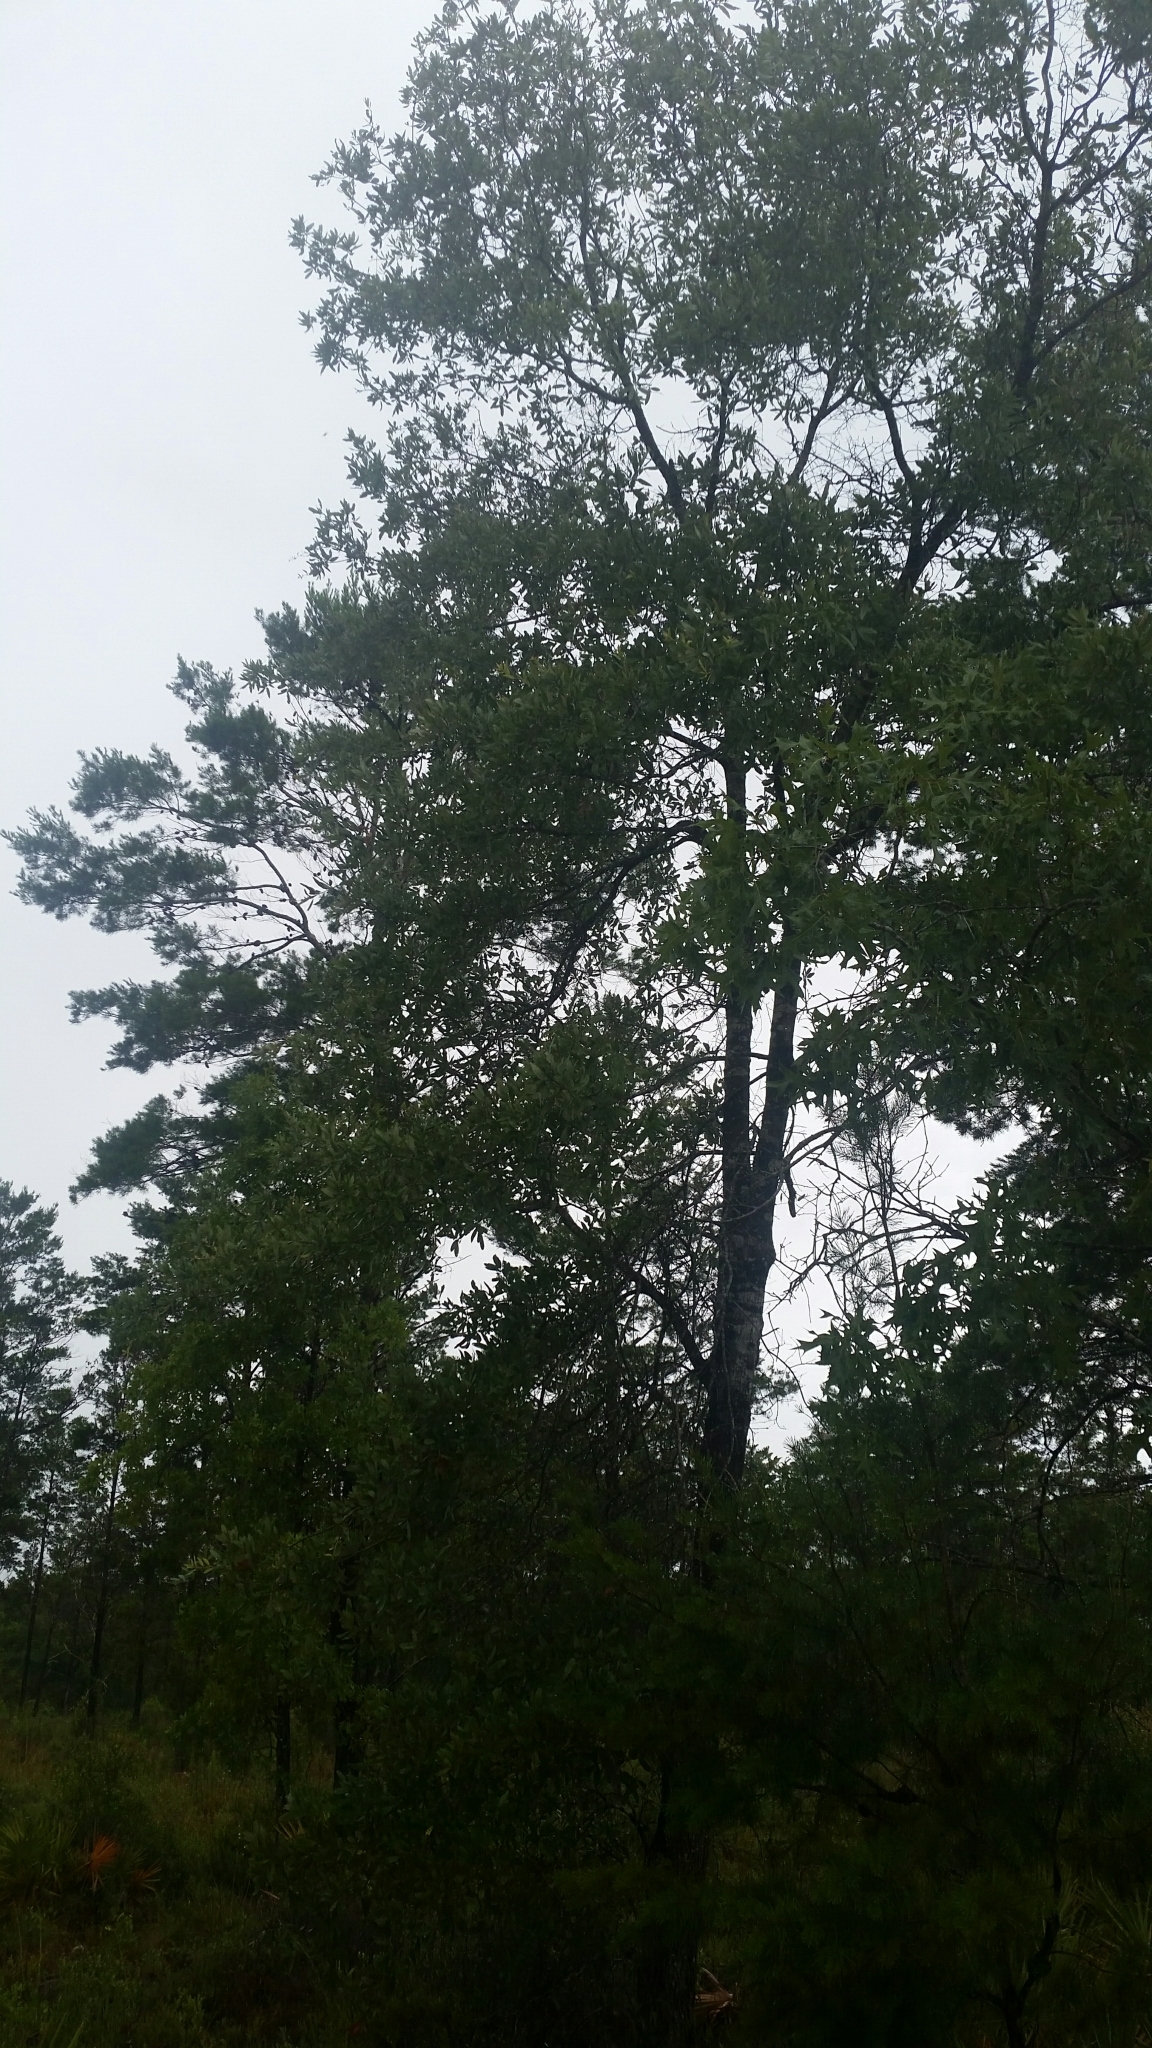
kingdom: Plantae
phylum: Tracheophyta
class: Magnoliopsida
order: Fagales
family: Fagaceae
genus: Quercus
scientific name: Quercus incana
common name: Bluejack oak
